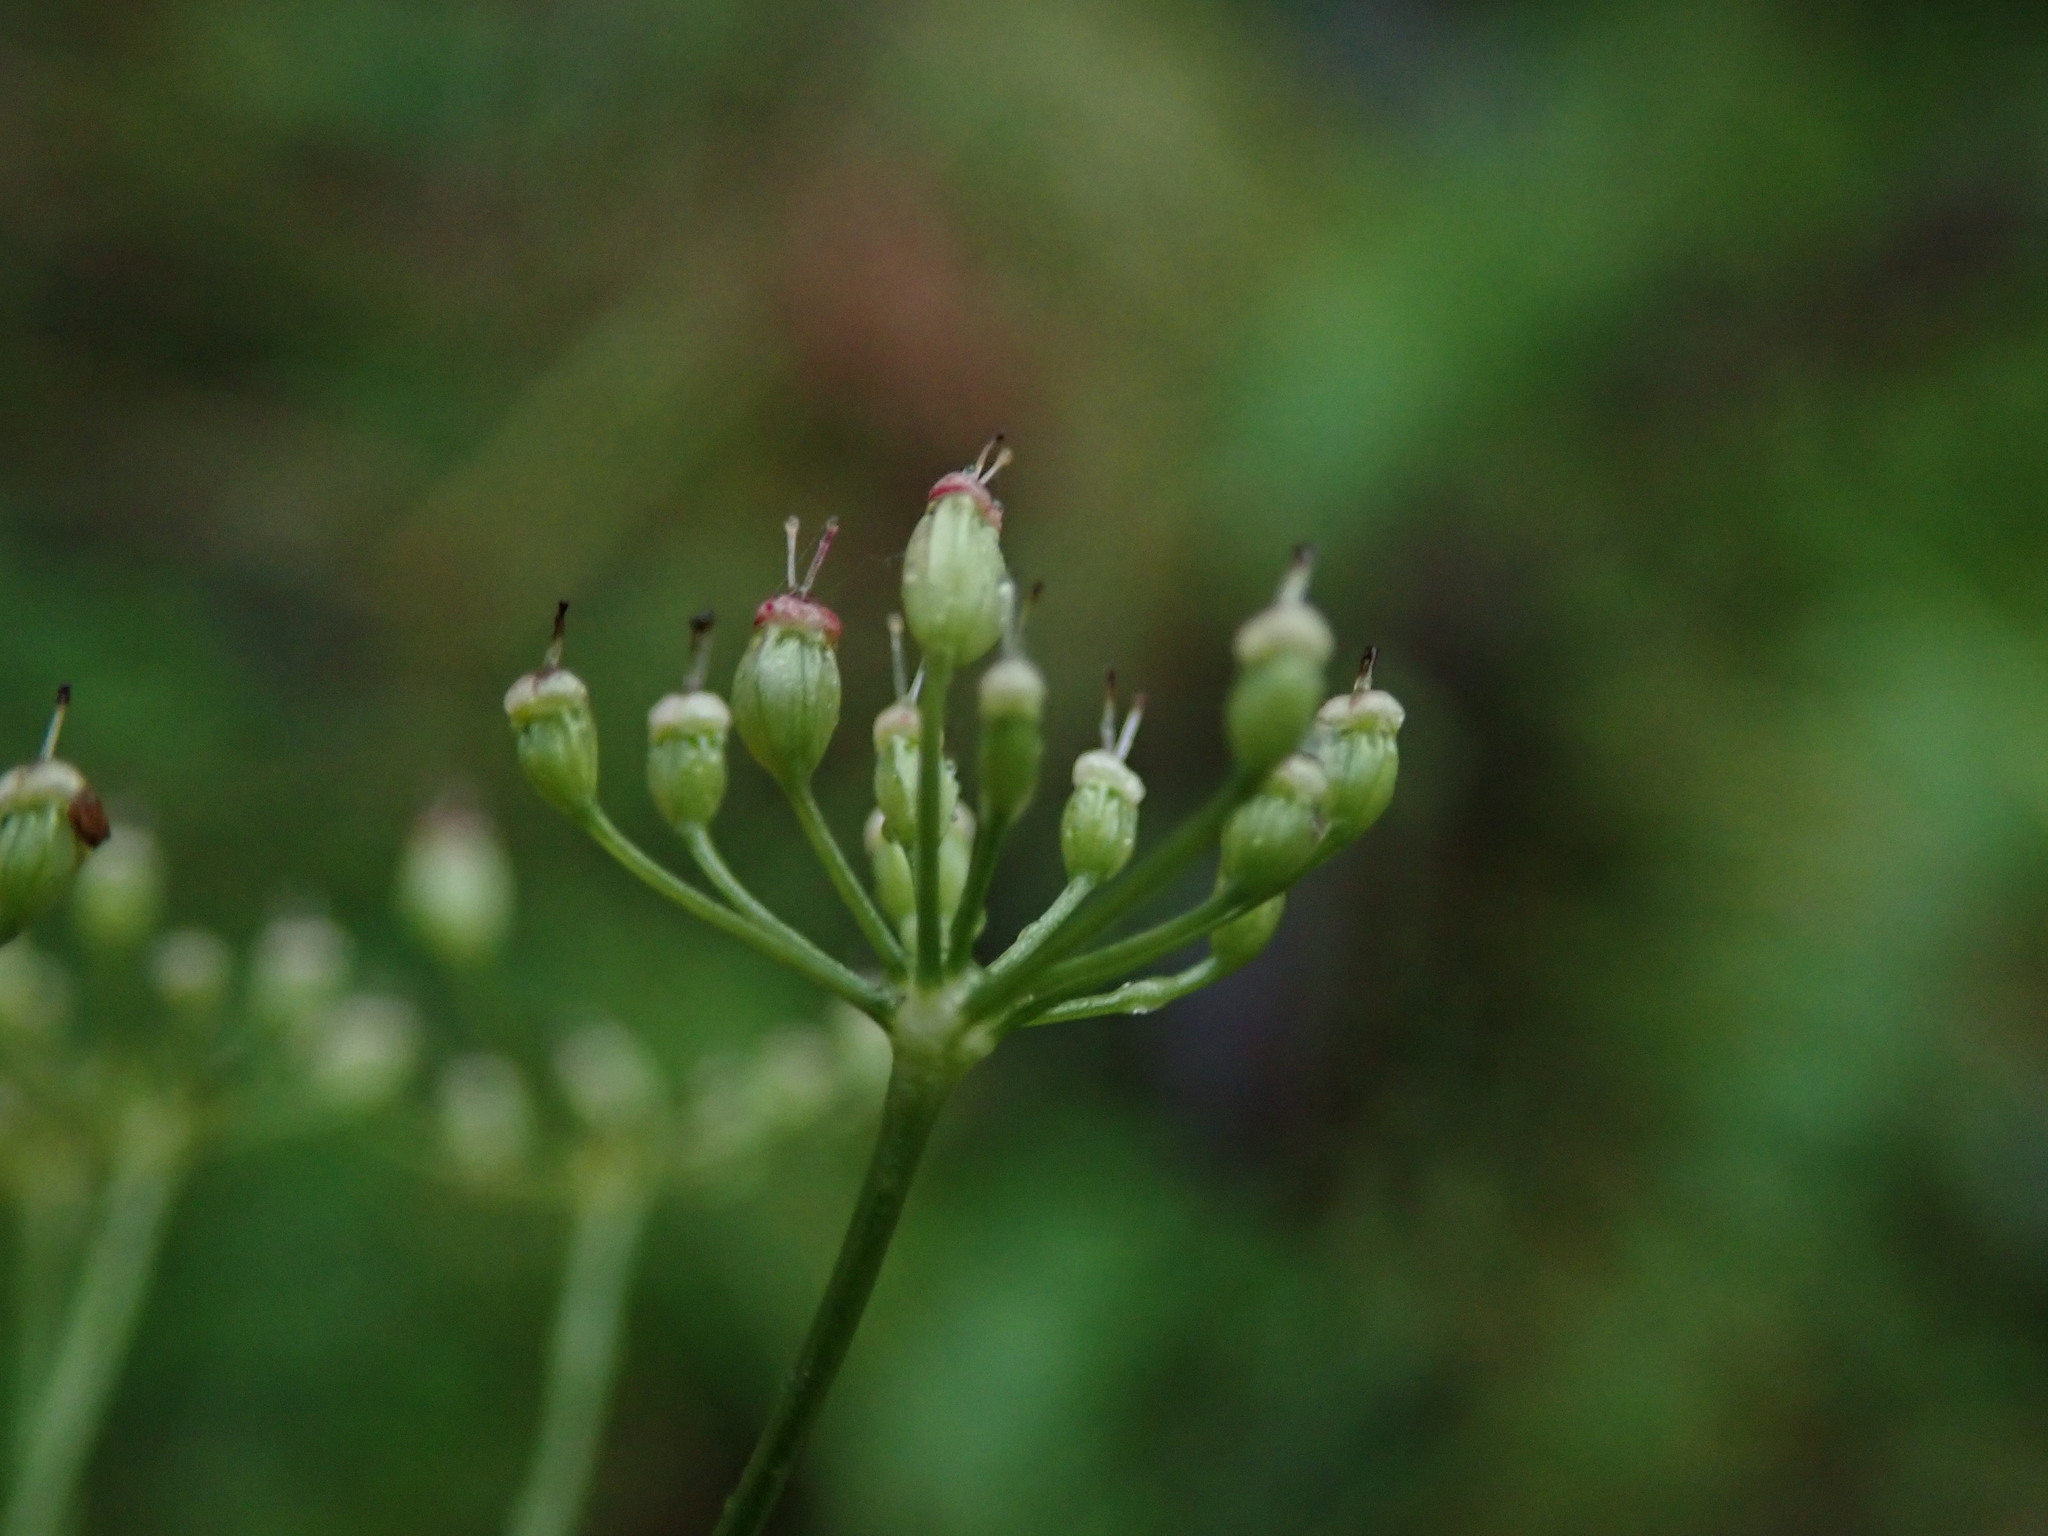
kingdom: Plantae
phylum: Tracheophyta
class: Magnoliopsida
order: Apiales
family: Apiaceae
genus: Pimpinella
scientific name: Pimpinella saxifraga
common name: Burnet-saxifrage
